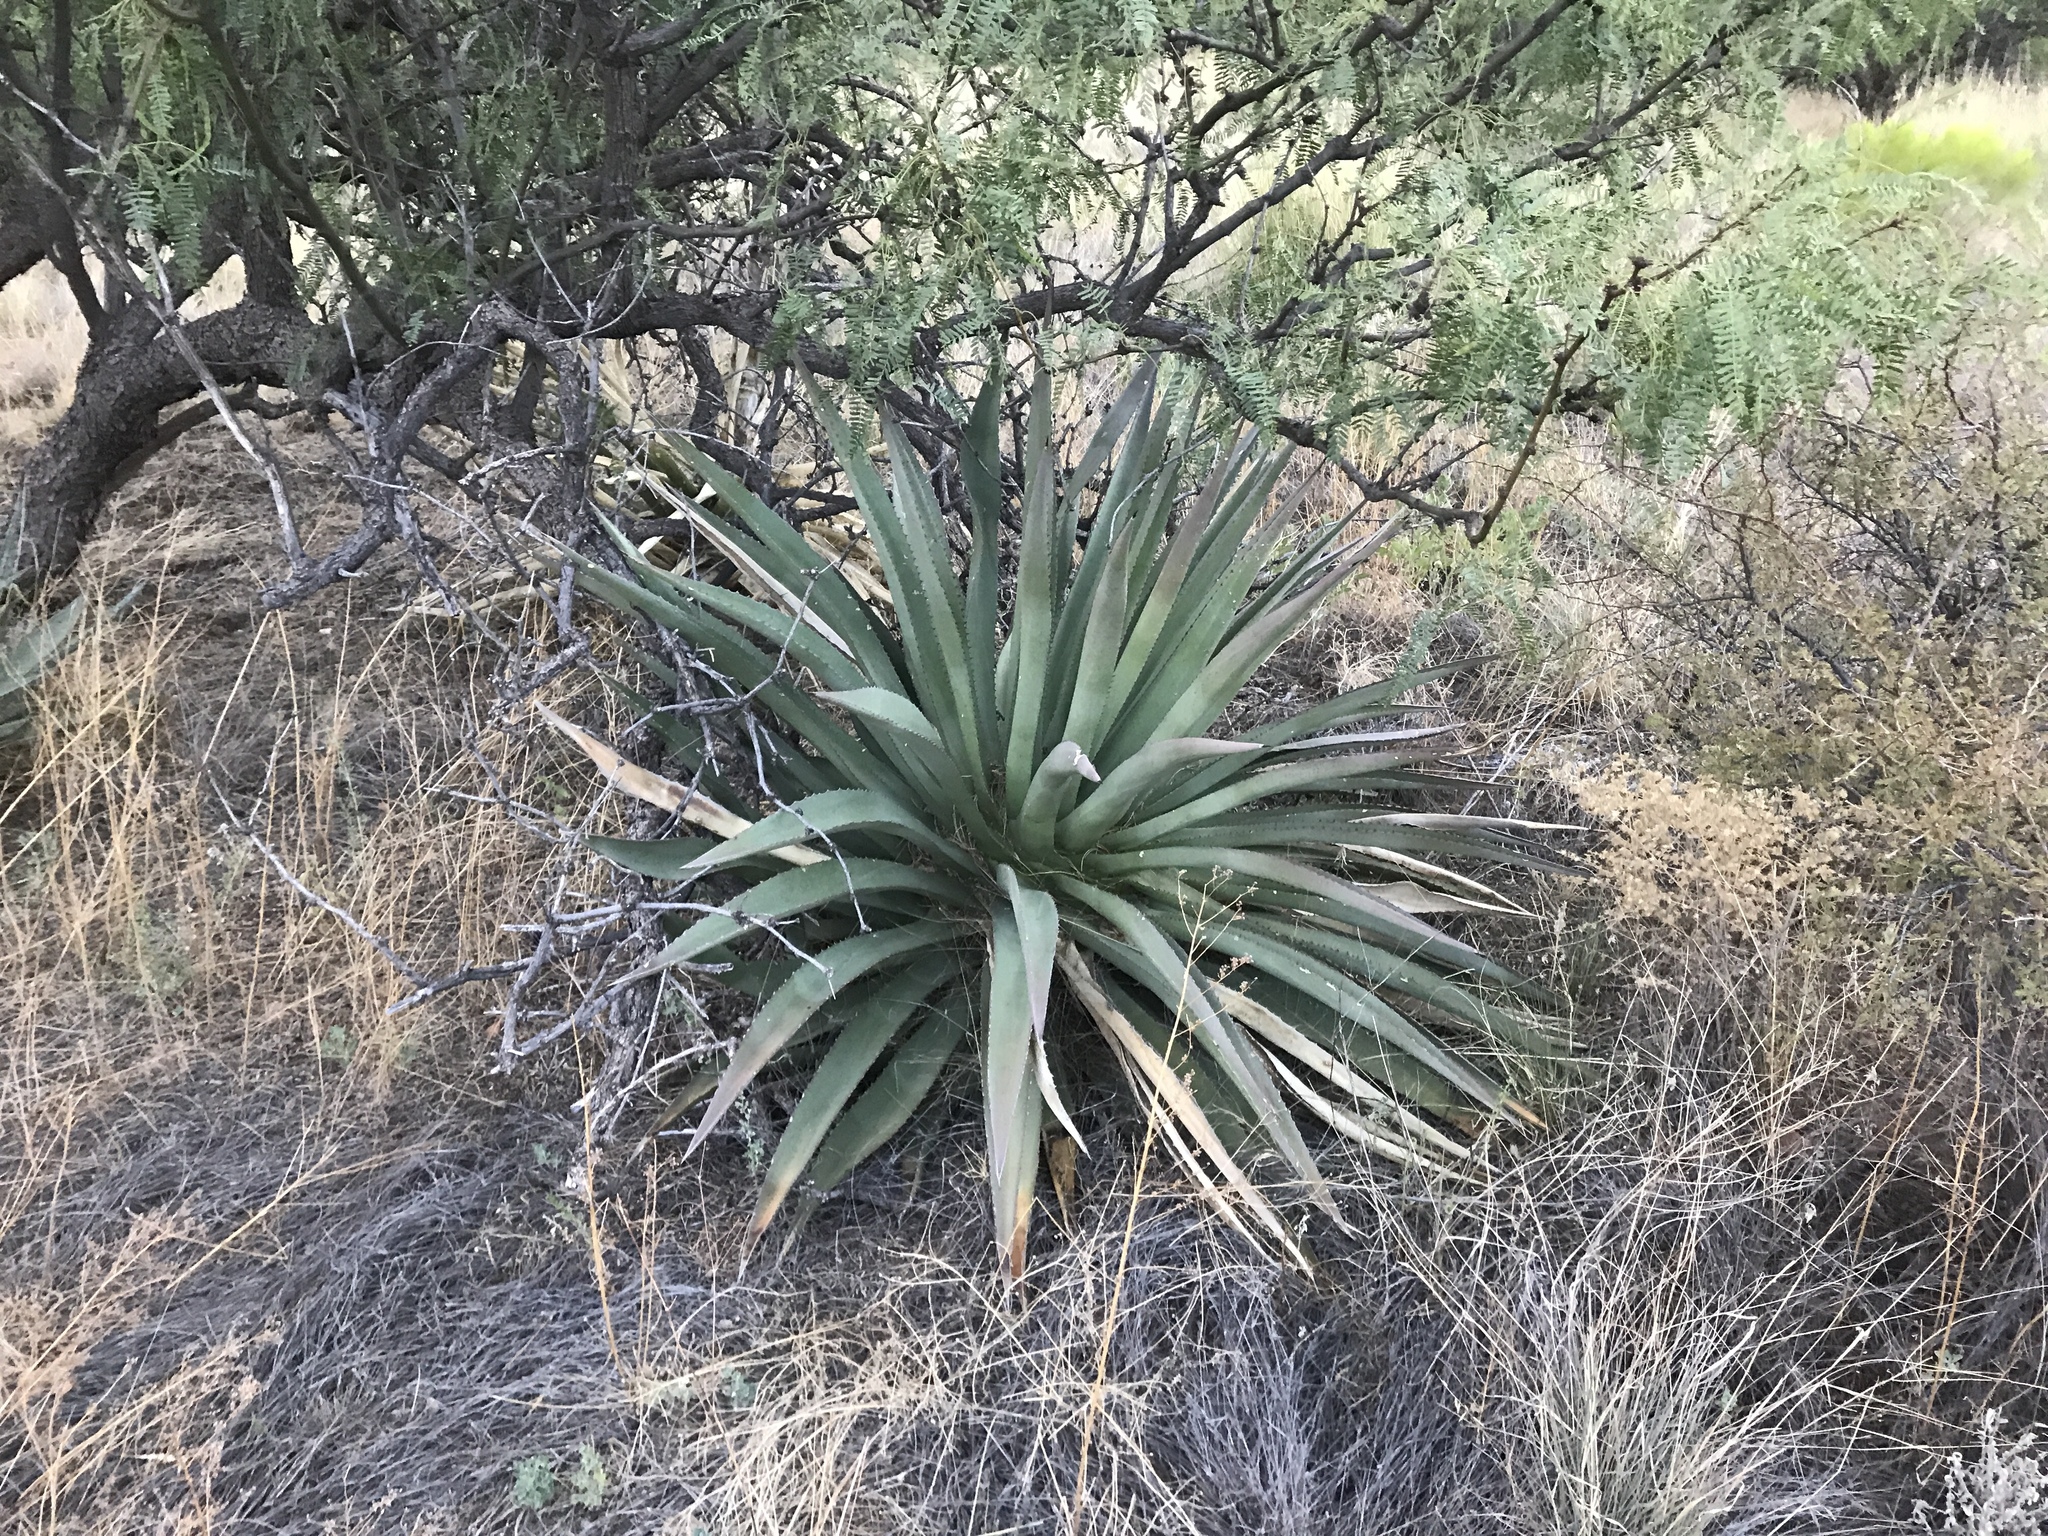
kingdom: Plantae
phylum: Tracheophyta
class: Liliopsida
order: Asparagales
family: Asparagaceae
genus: Agave
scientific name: Agave palmeri
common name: Palmer agave
